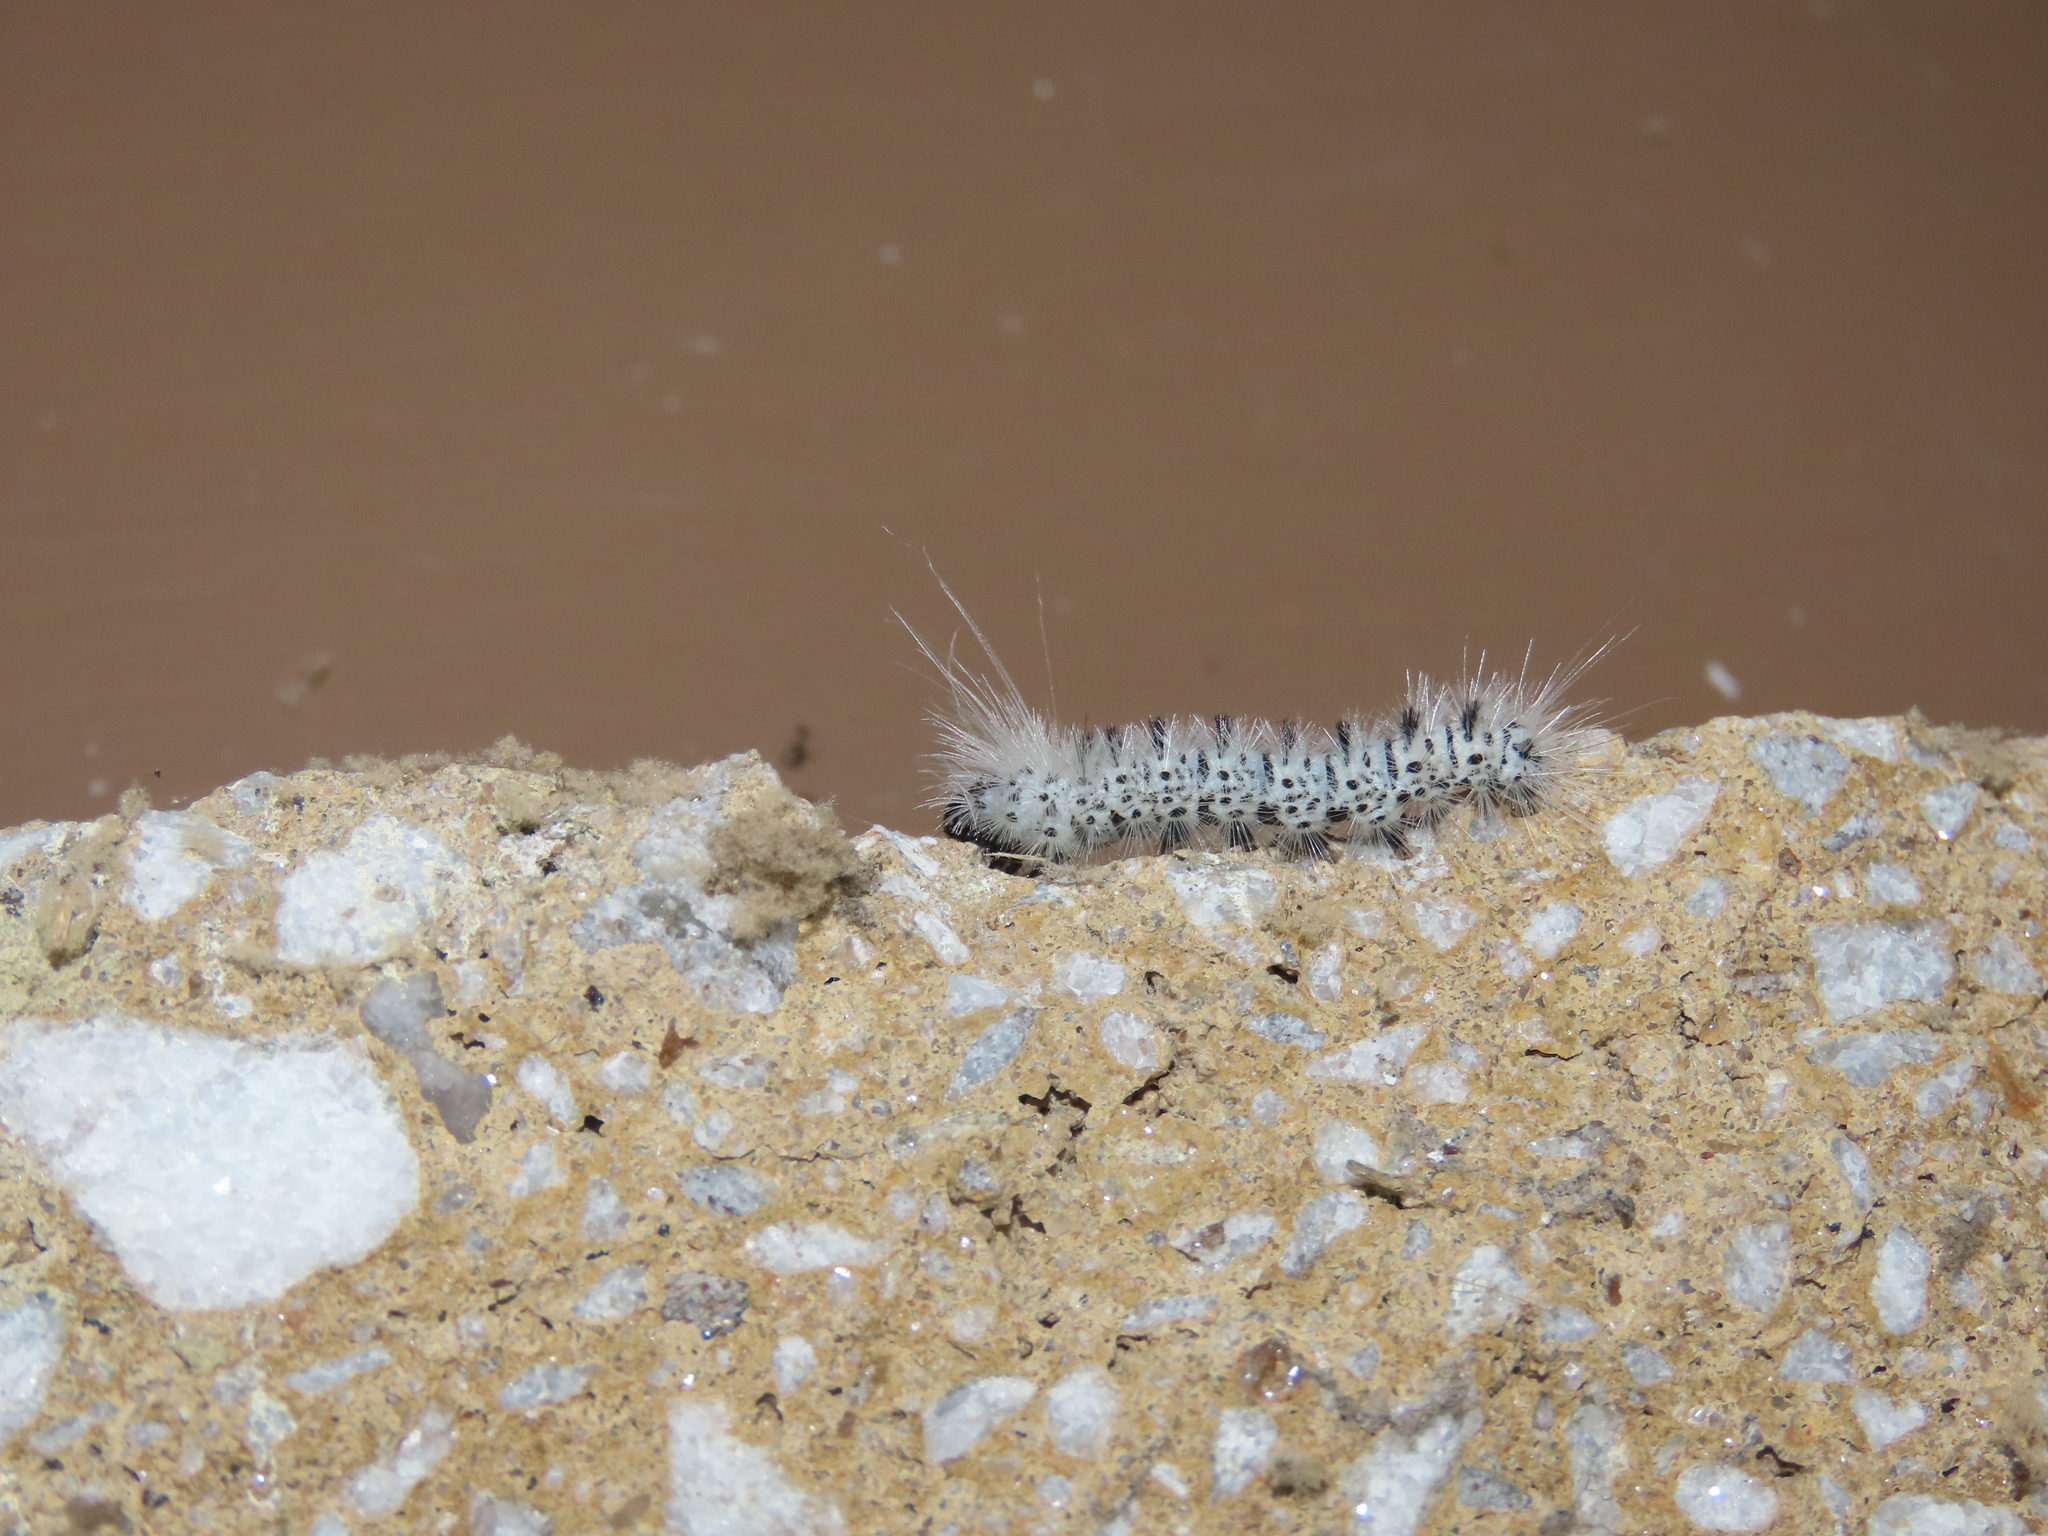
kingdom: Animalia
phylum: Arthropoda
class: Insecta
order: Lepidoptera
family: Erebidae
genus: Lophocampa
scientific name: Lophocampa caryae
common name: Hickory tussock moth
